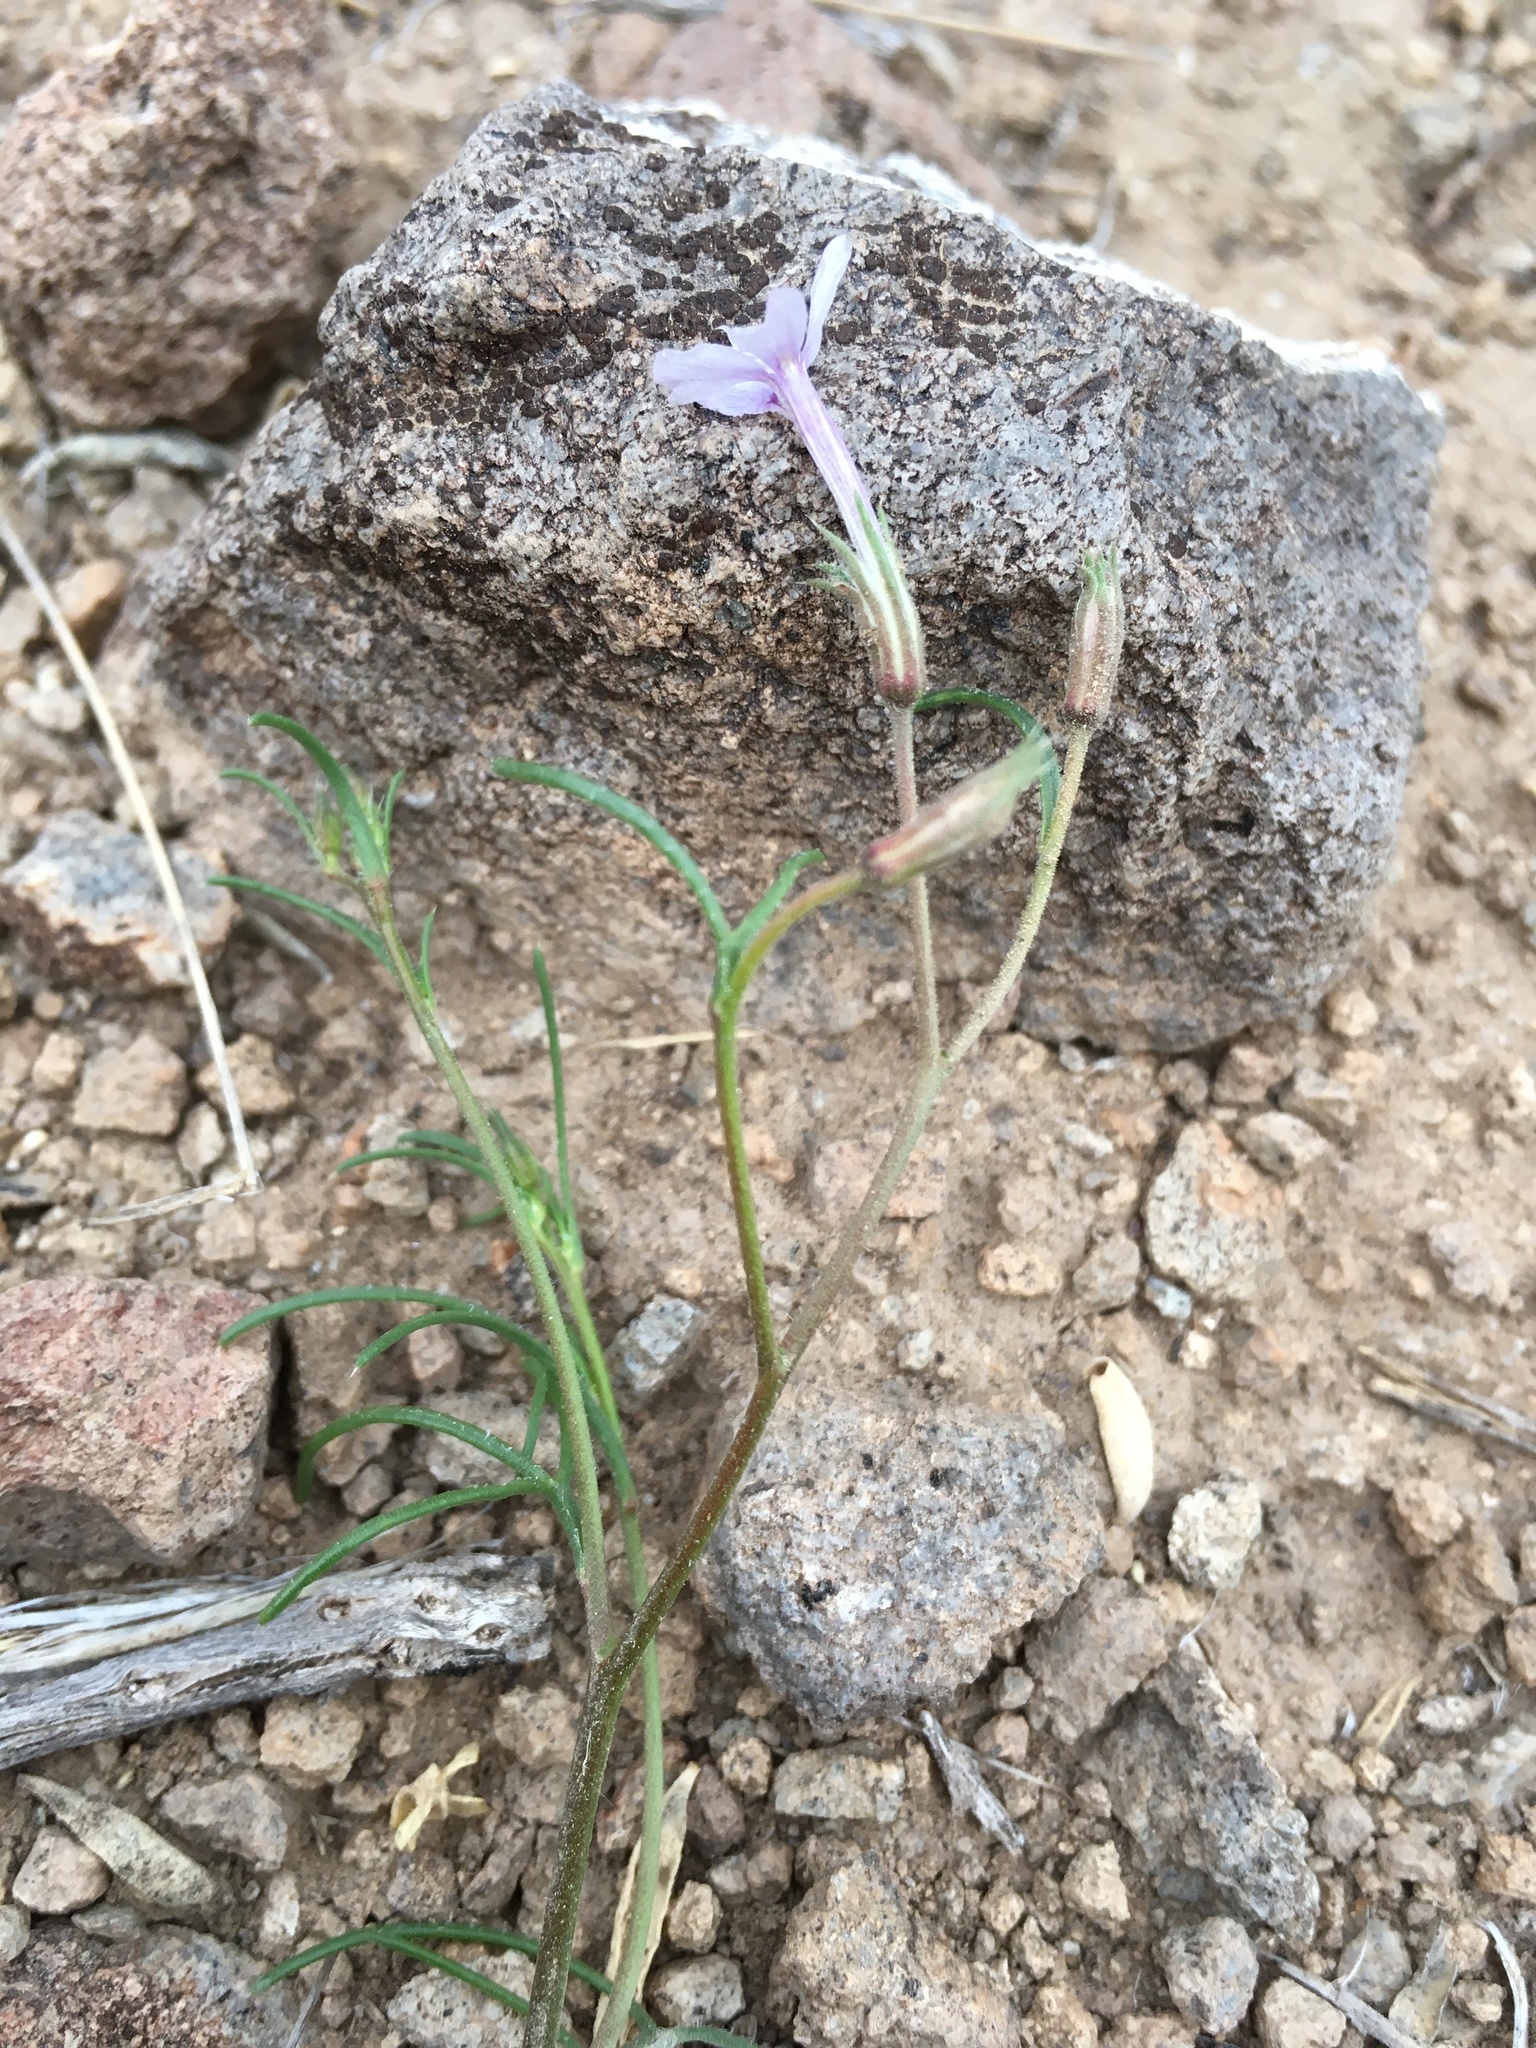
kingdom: Plantae
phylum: Tracheophyta
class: Magnoliopsida
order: Ericales
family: Polemoniaceae
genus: Ipomopsis
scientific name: Ipomopsis laxiflora
